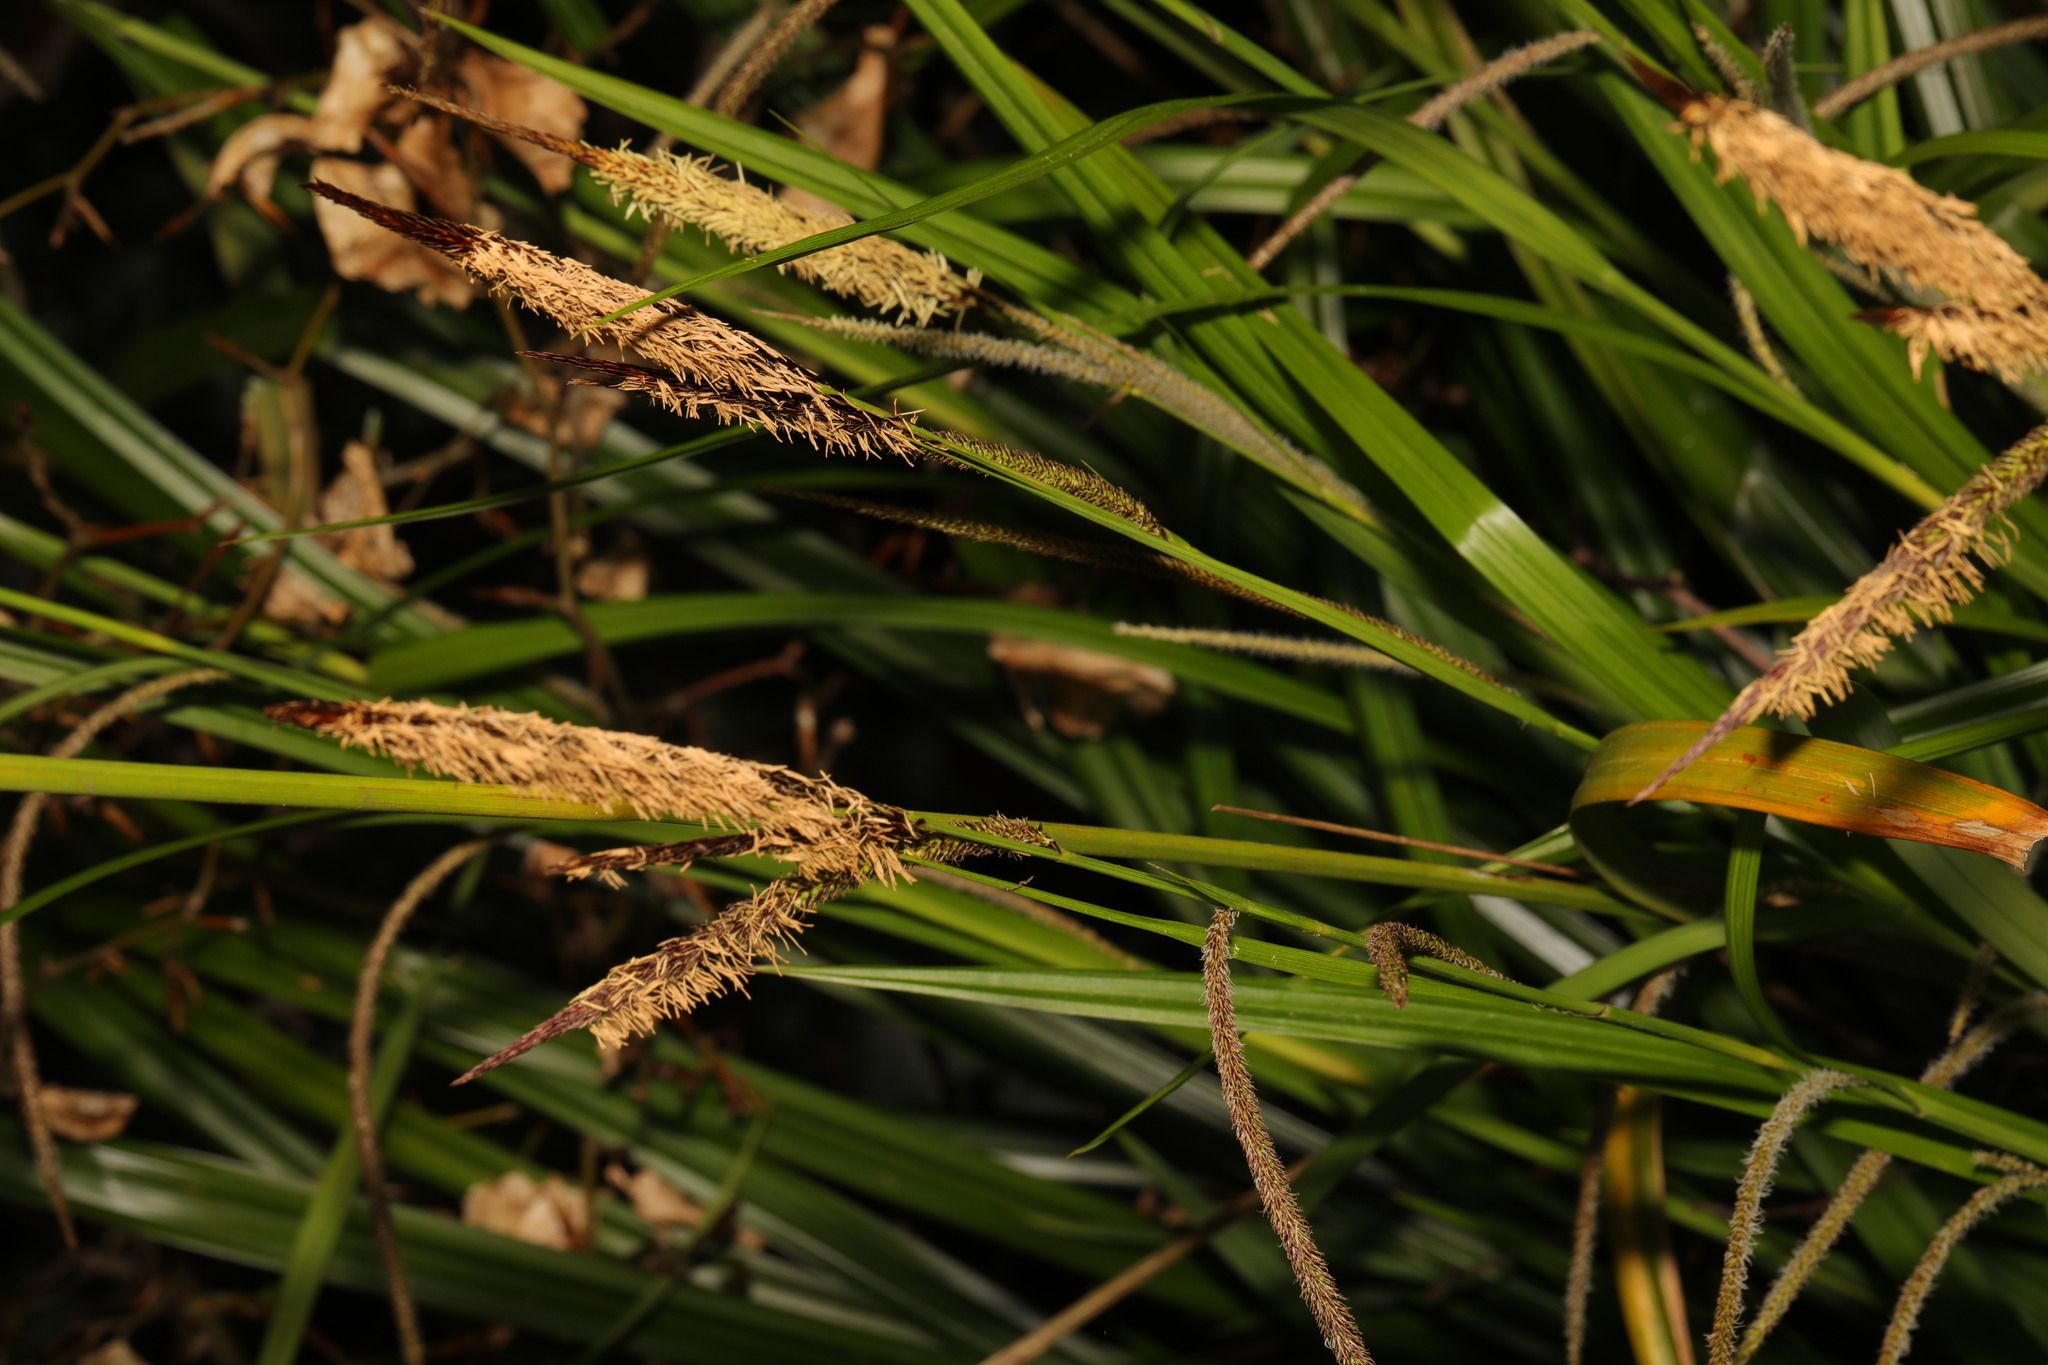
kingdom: Plantae
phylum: Tracheophyta
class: Liliopsida
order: Poales
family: Cyperaceae
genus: Carex
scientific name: Carex pendula
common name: Pendulous sedge
